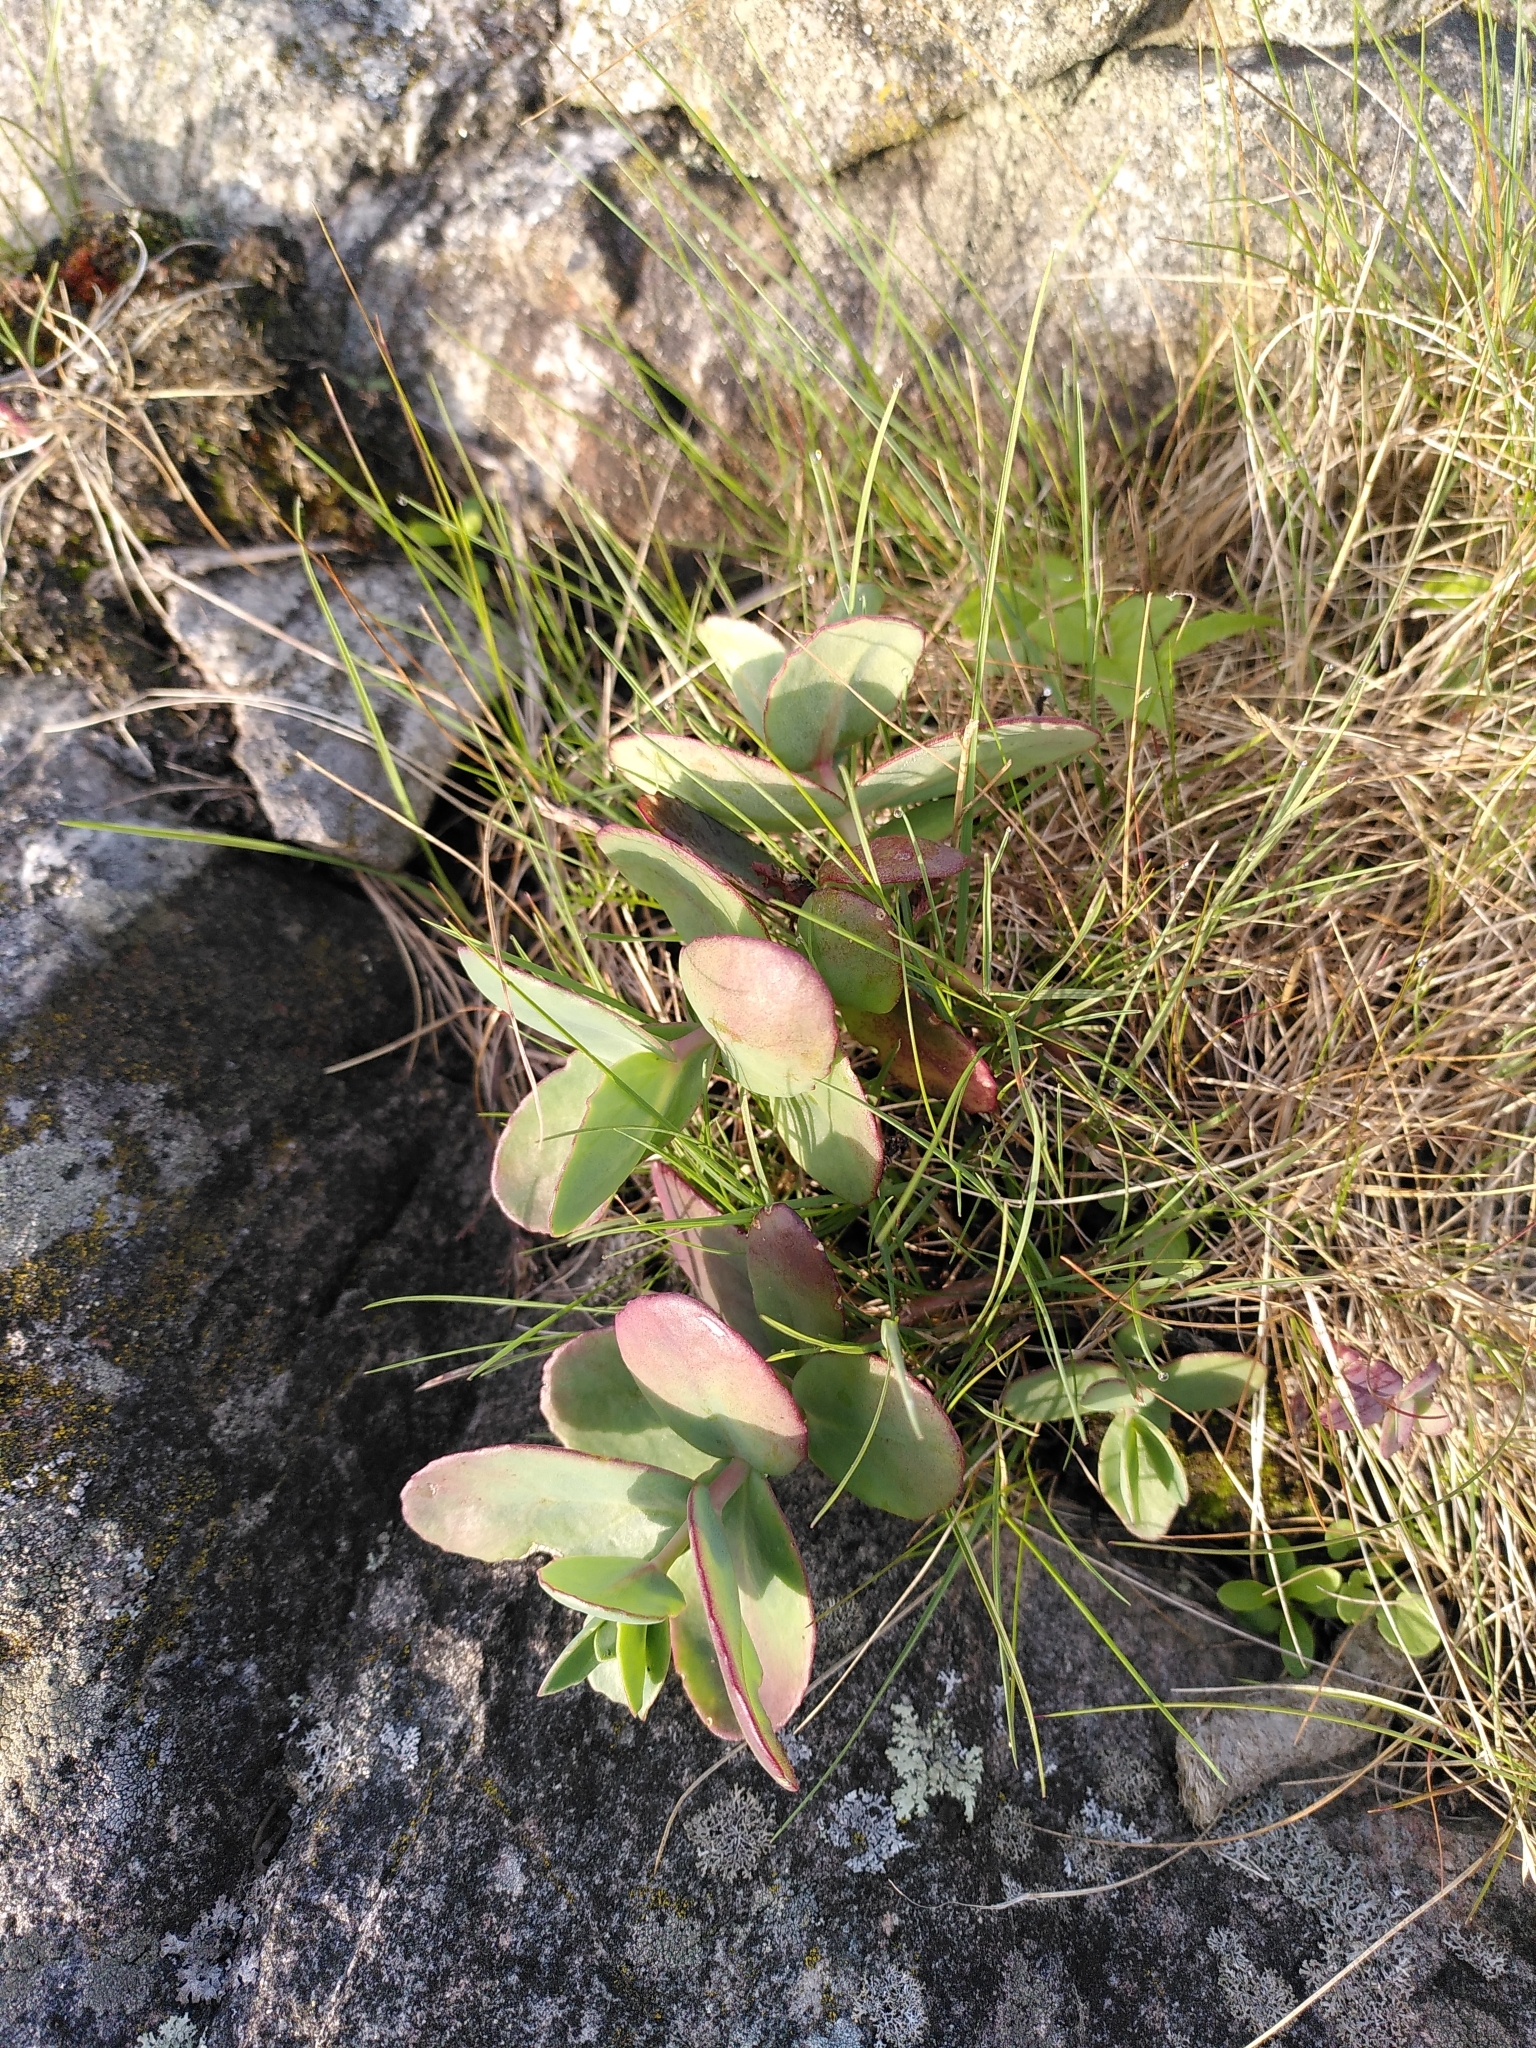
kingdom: Plantae
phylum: Tracheophyta
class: Magnoliopsida
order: Saxifragales
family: Crassulaceae
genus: Hylotelephium
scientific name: Hylotelephium maximum
